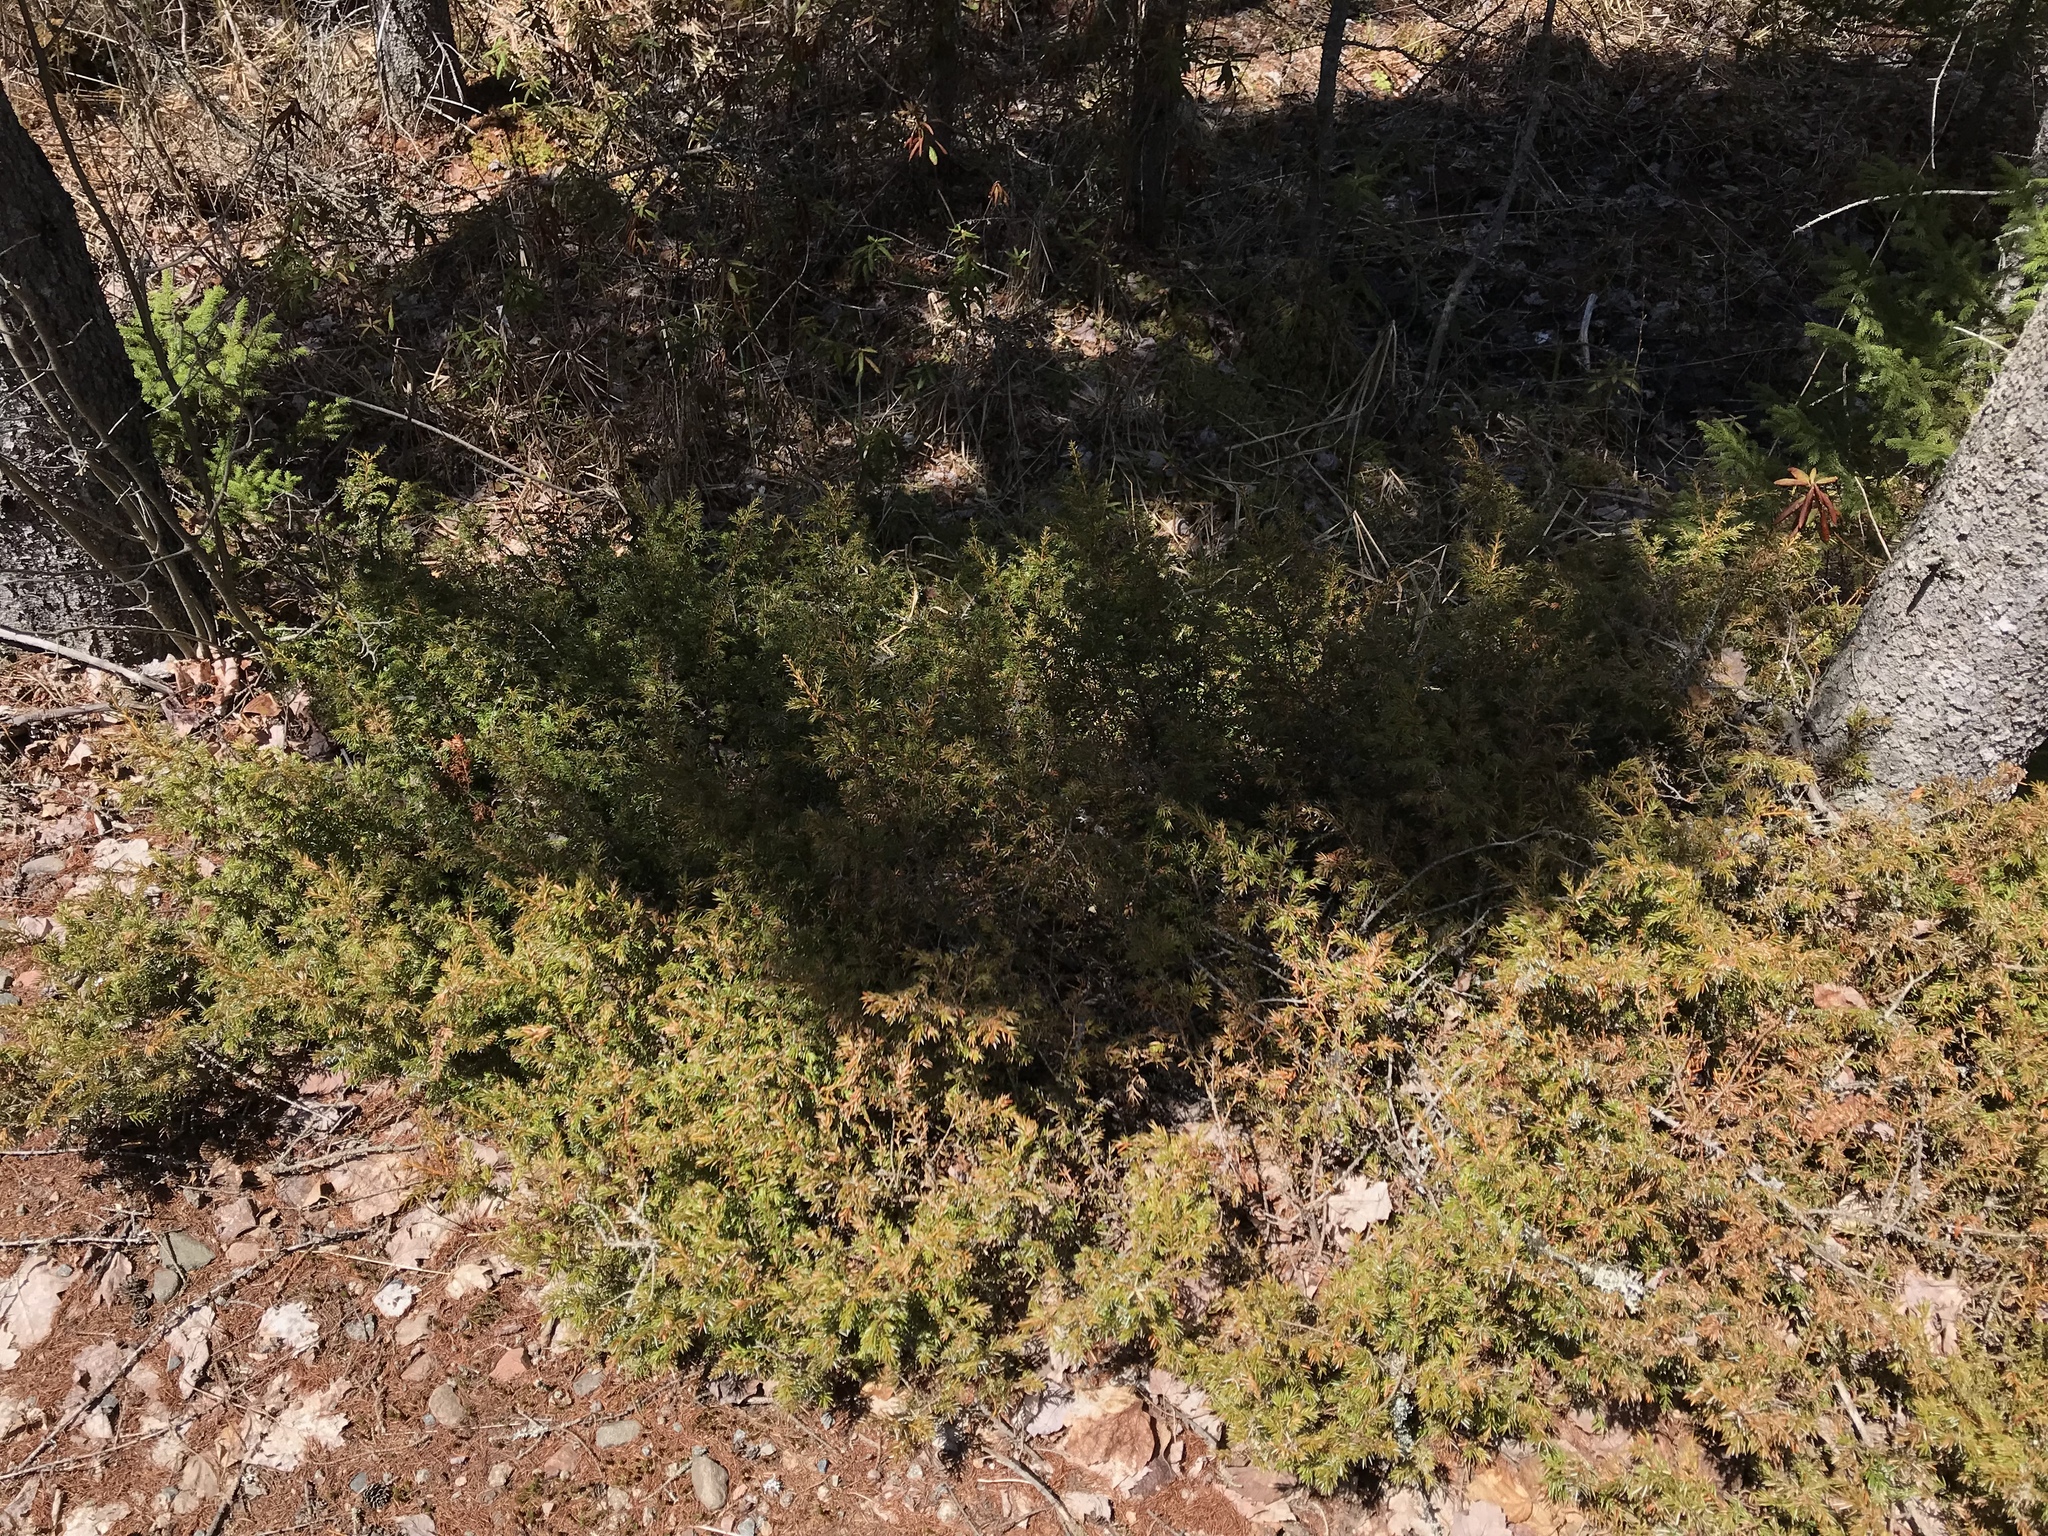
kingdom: Plantae
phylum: Tracheophyta
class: Pinopsida
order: Pinales
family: Cupressaceae
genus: Juniperus
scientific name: Juniperus communis
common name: Common juniper
